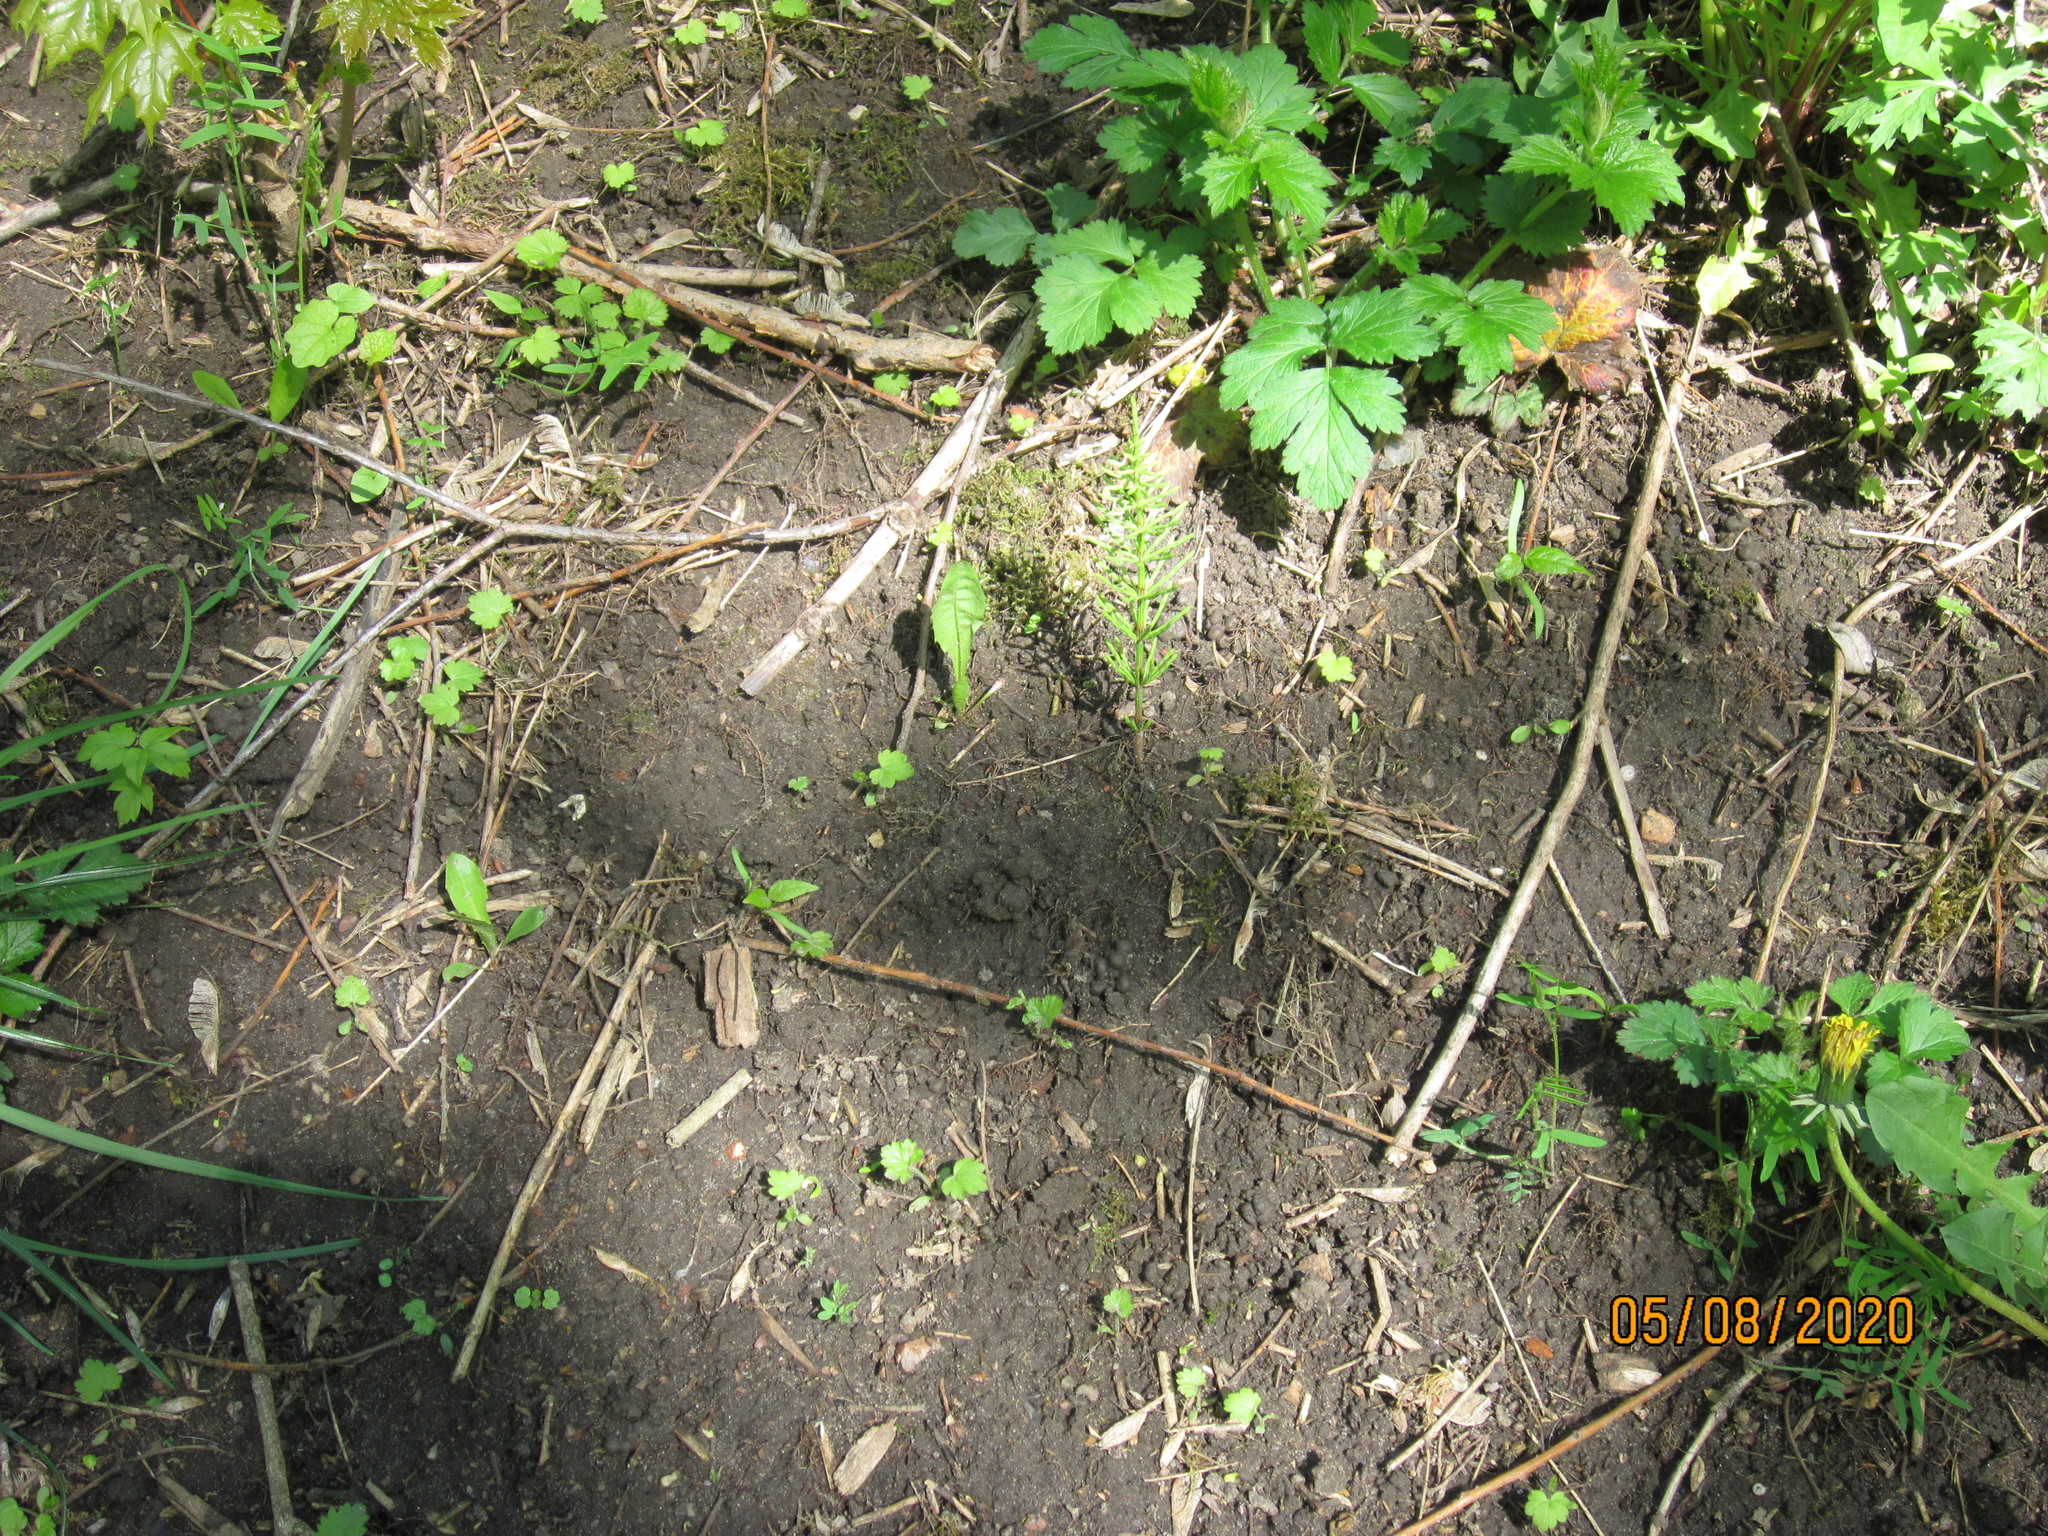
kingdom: Plantae
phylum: Tracheophyta
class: Polypodiopsida
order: Equisetales
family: Equisetaceae
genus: Equisetum
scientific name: Equisetum arvense
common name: Field horsetail
